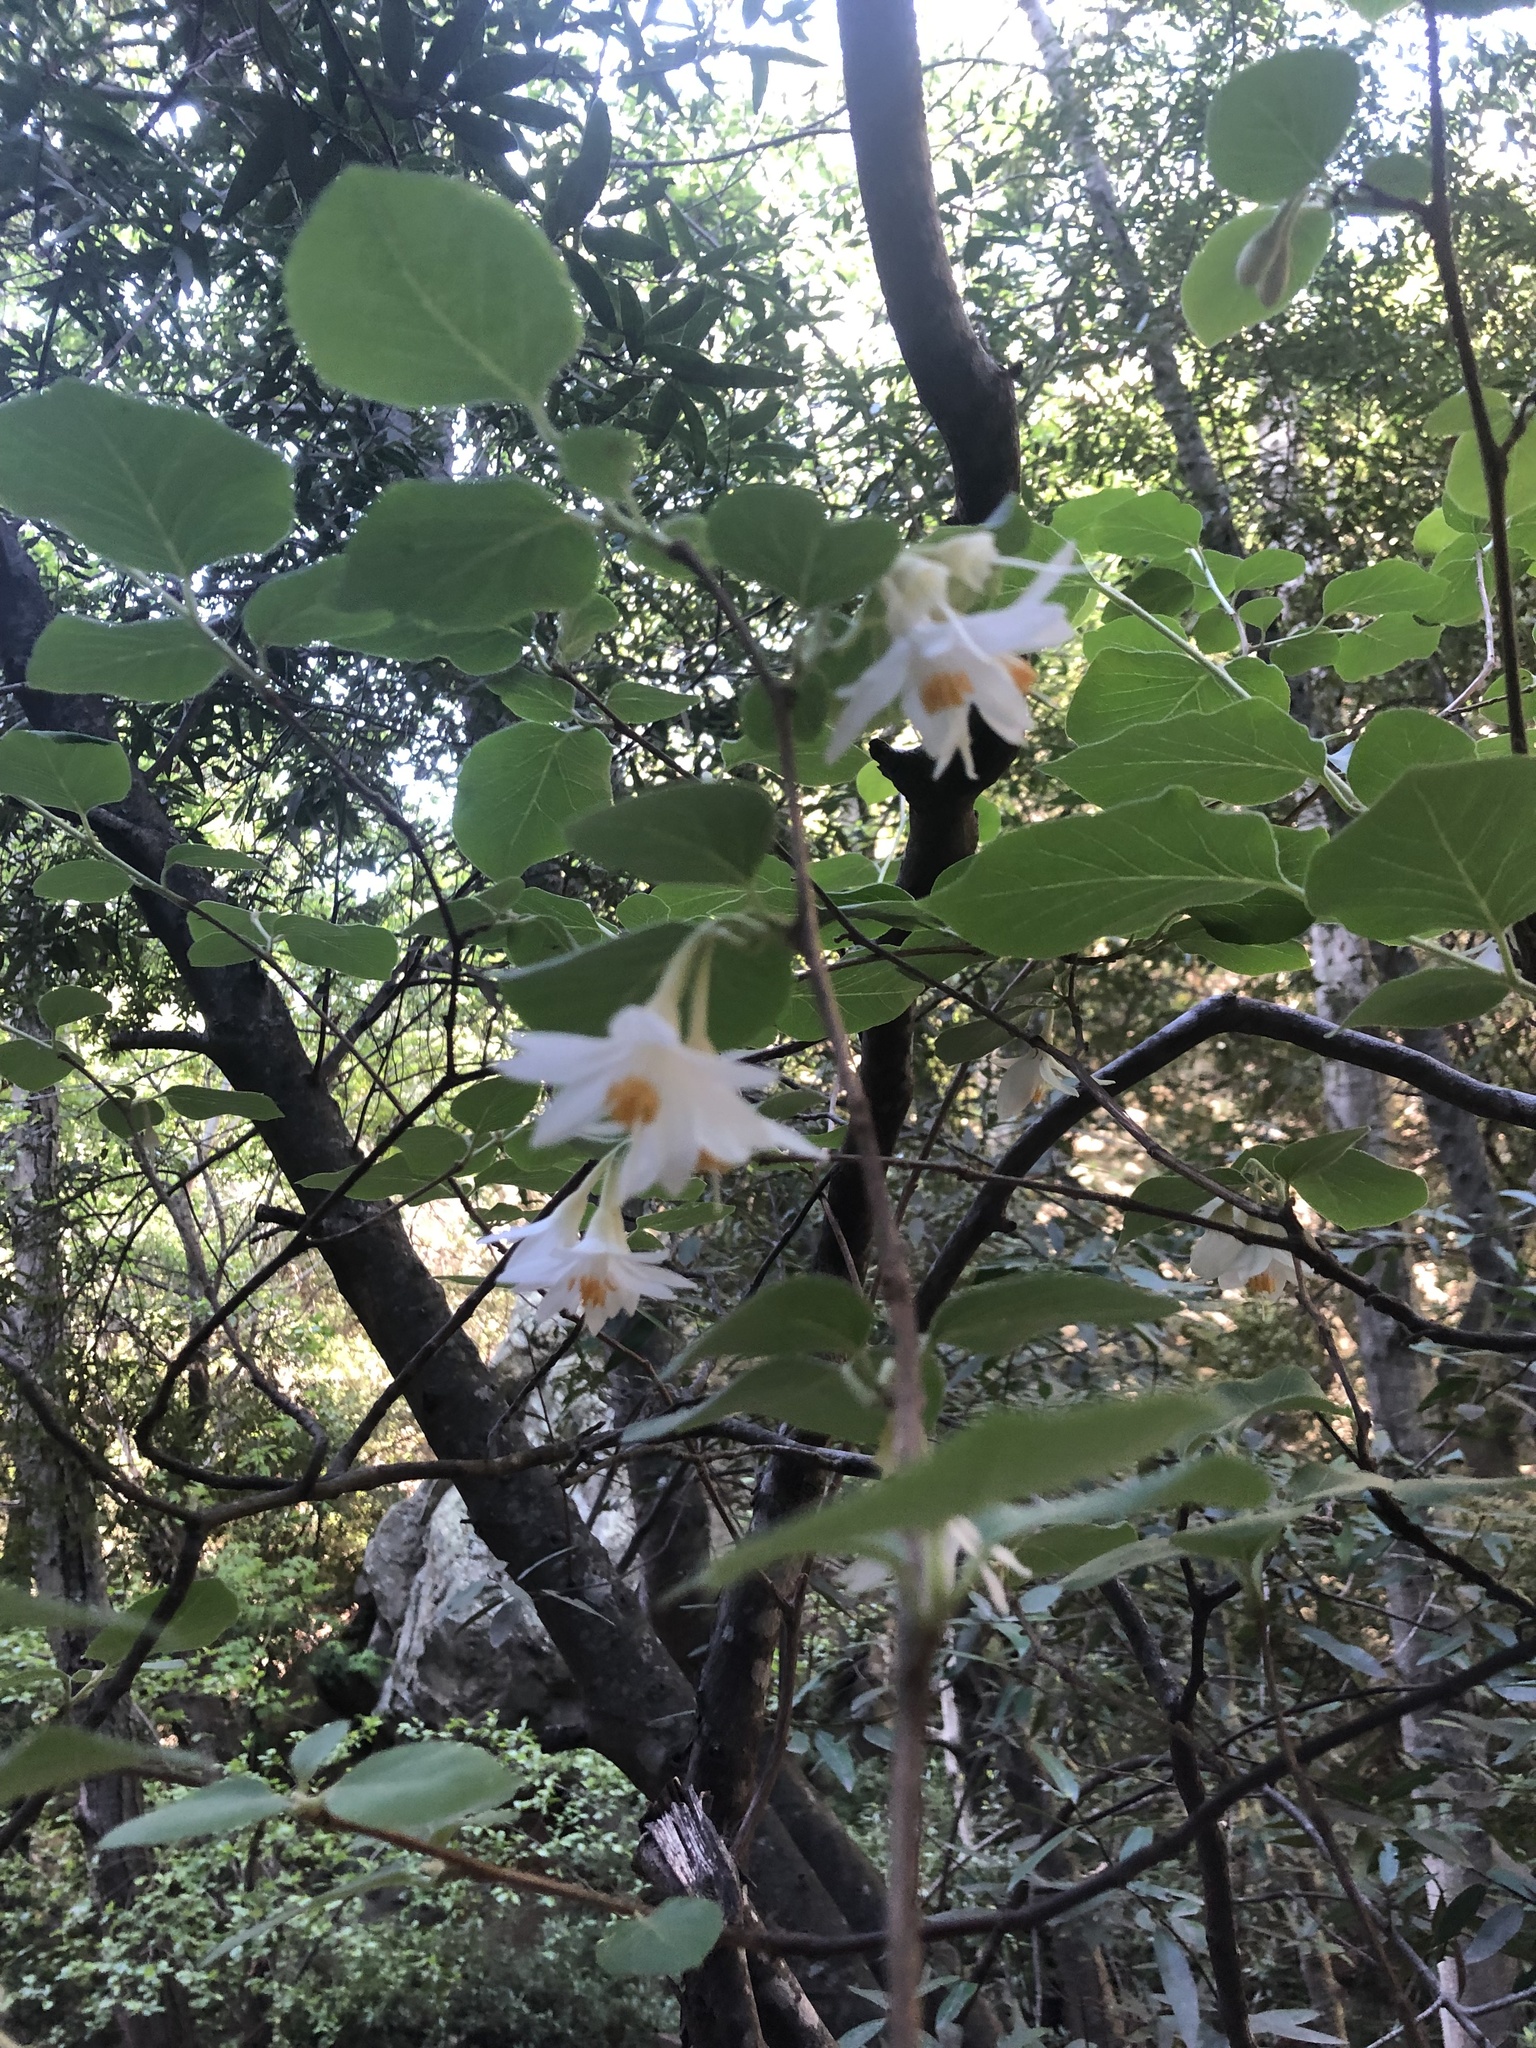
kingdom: Plantae
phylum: Tracheophyta
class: Magnoliopsida
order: Ericales
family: Styracaceae
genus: Styrax
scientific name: Styrax redivivus
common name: California styrax
